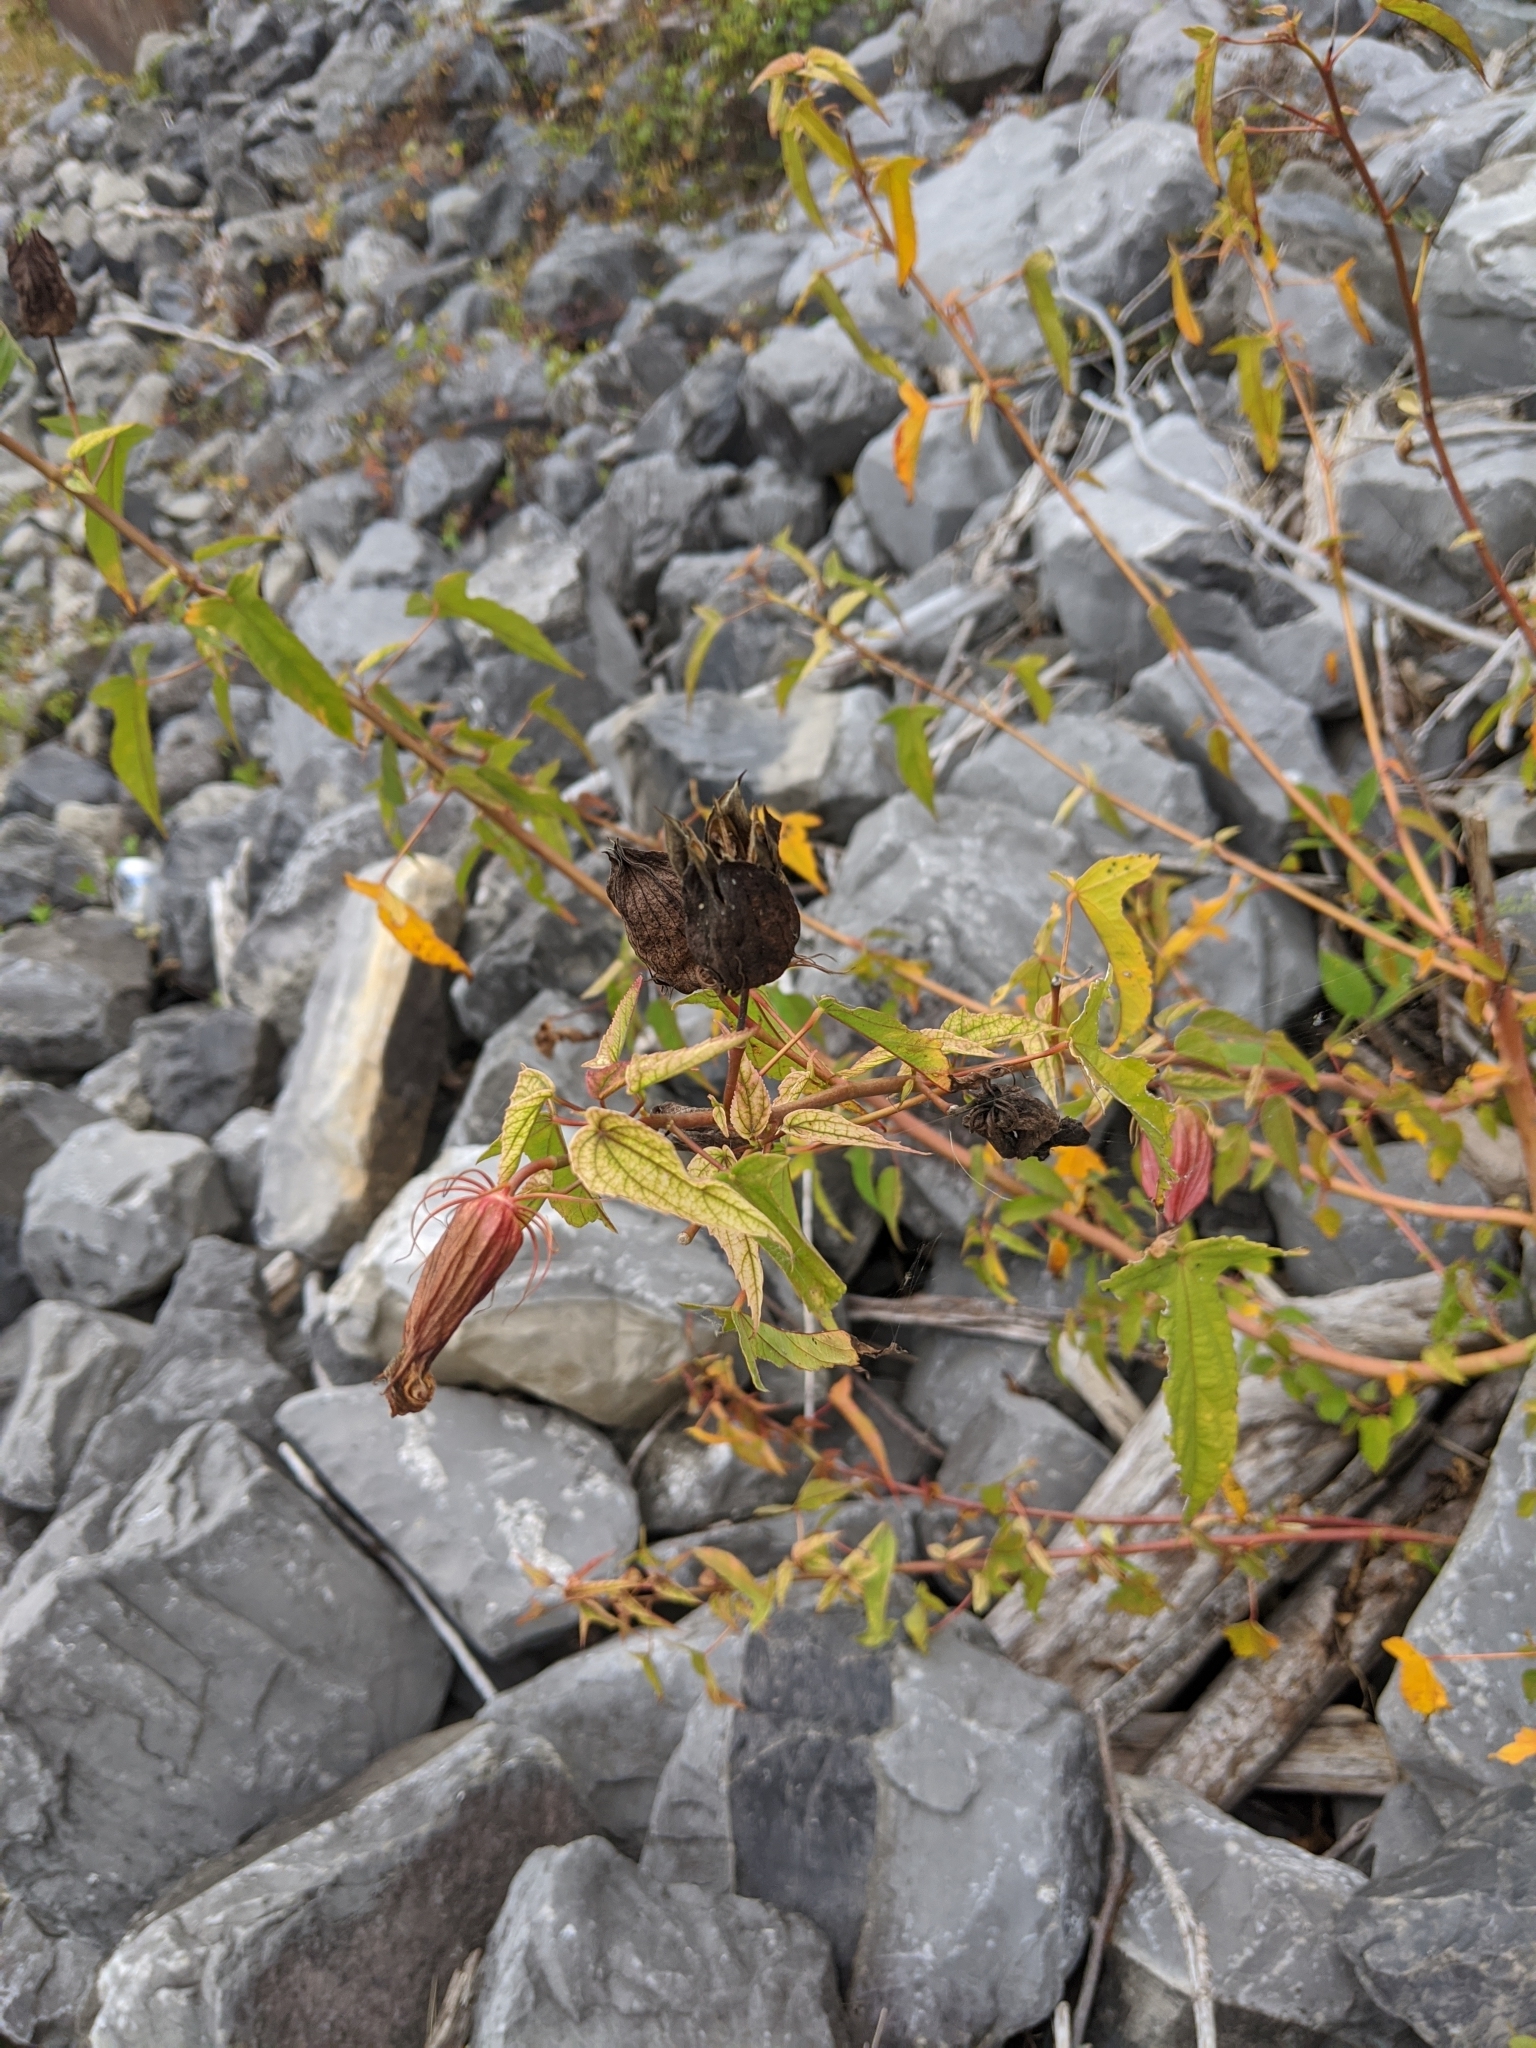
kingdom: Plantae
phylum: Tracheophyta
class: Magnoliopsida
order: Malvales
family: Malvaceae
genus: Hibiscus
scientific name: Hibiscus laevis
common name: Scarlet rose-mallow
